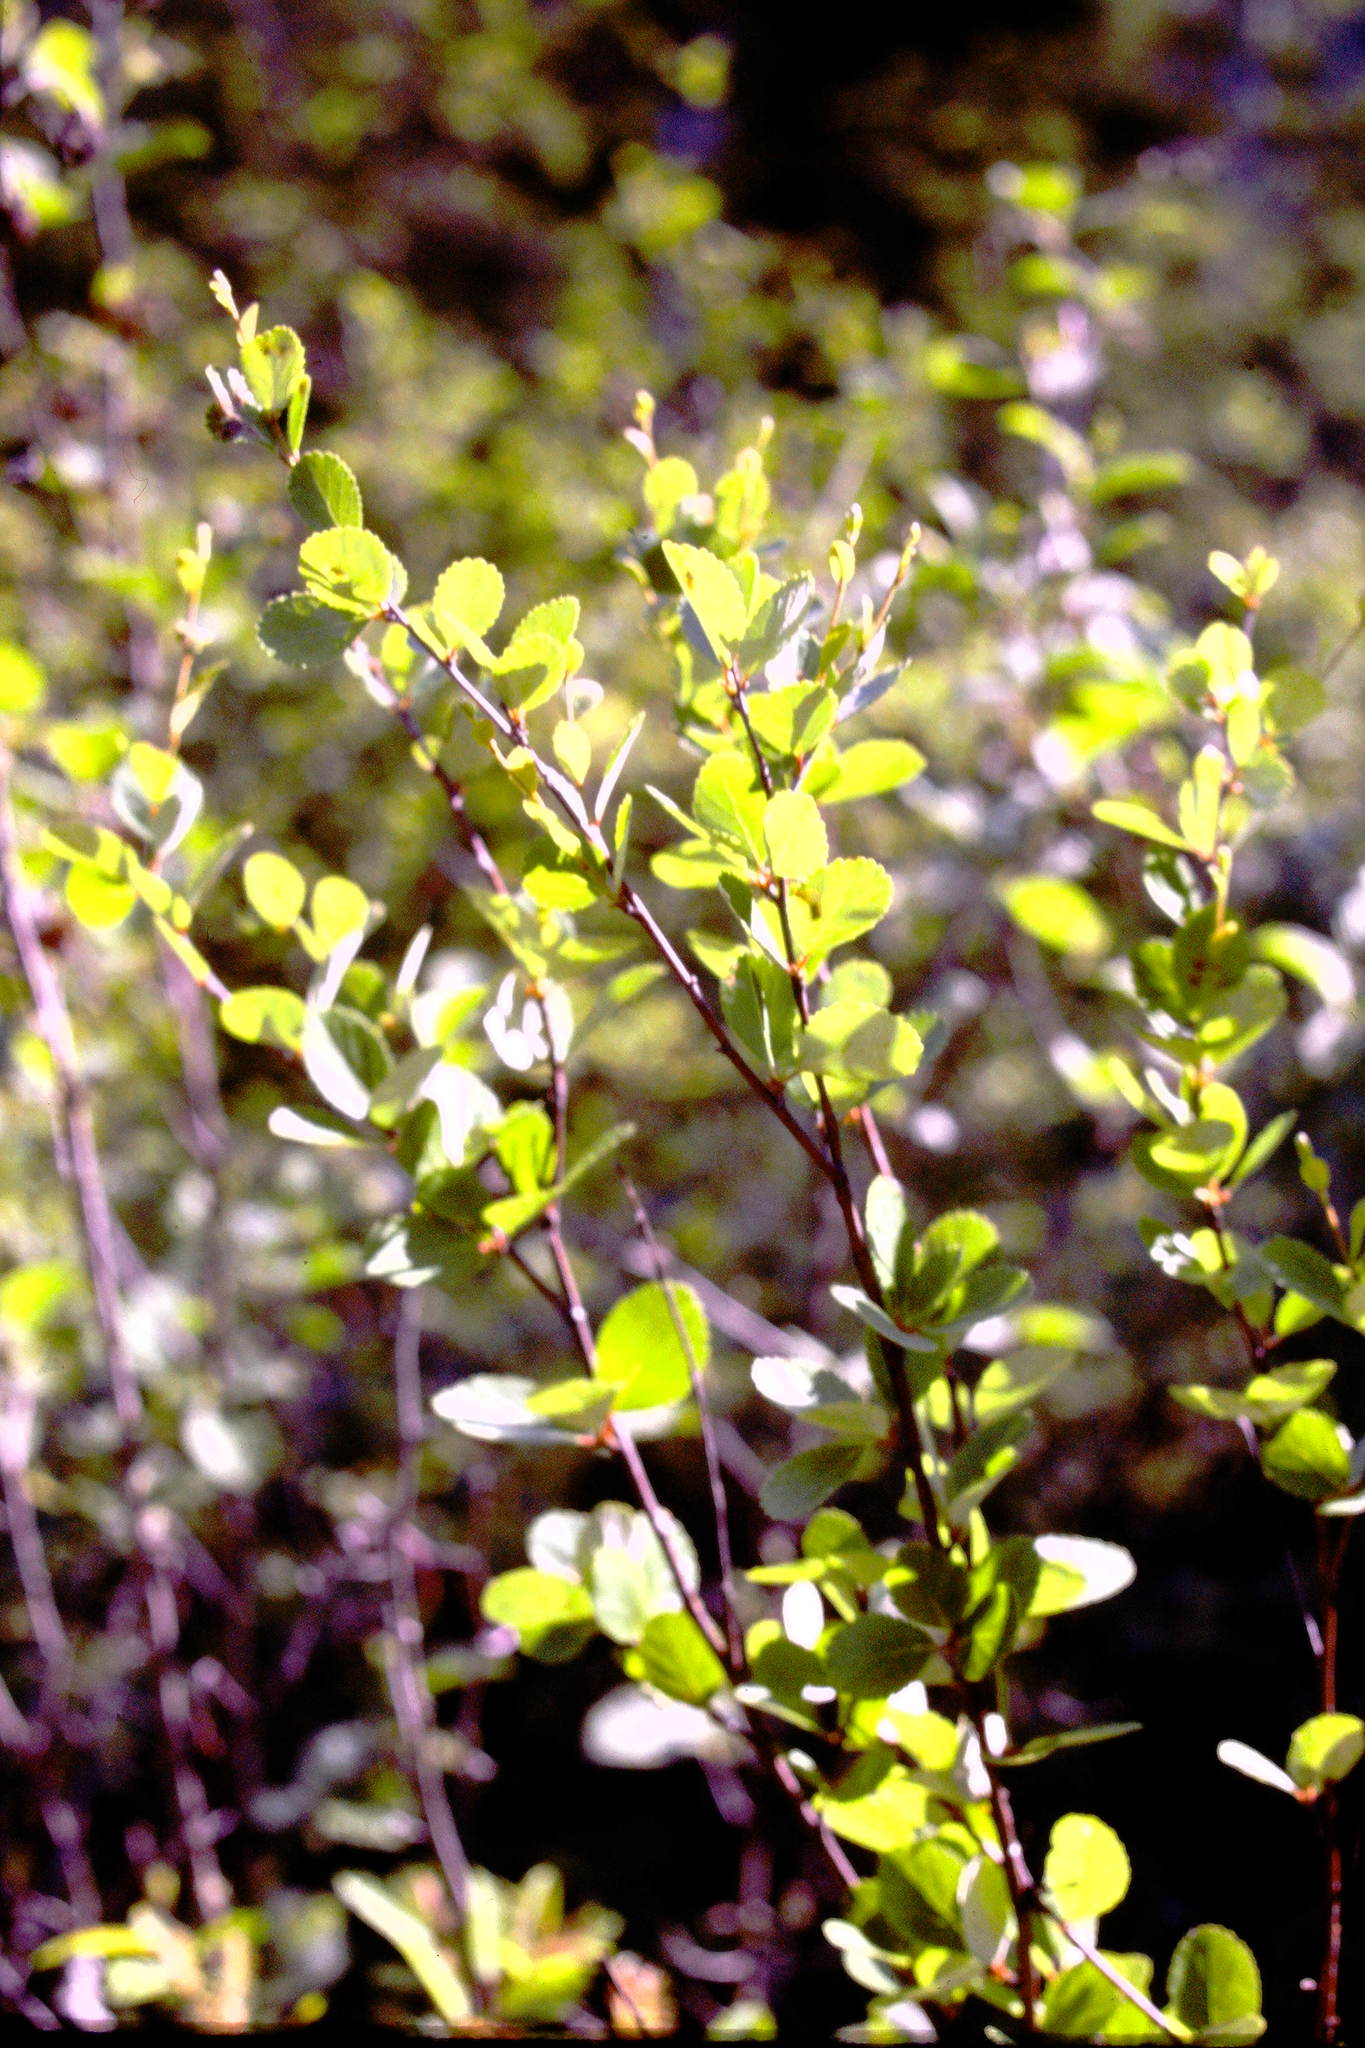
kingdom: Plantae
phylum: Tracheophyta
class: Magnoliopsida
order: Fagales
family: Betulaceae
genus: Betula
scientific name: Betula pumila
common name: Bog birch
